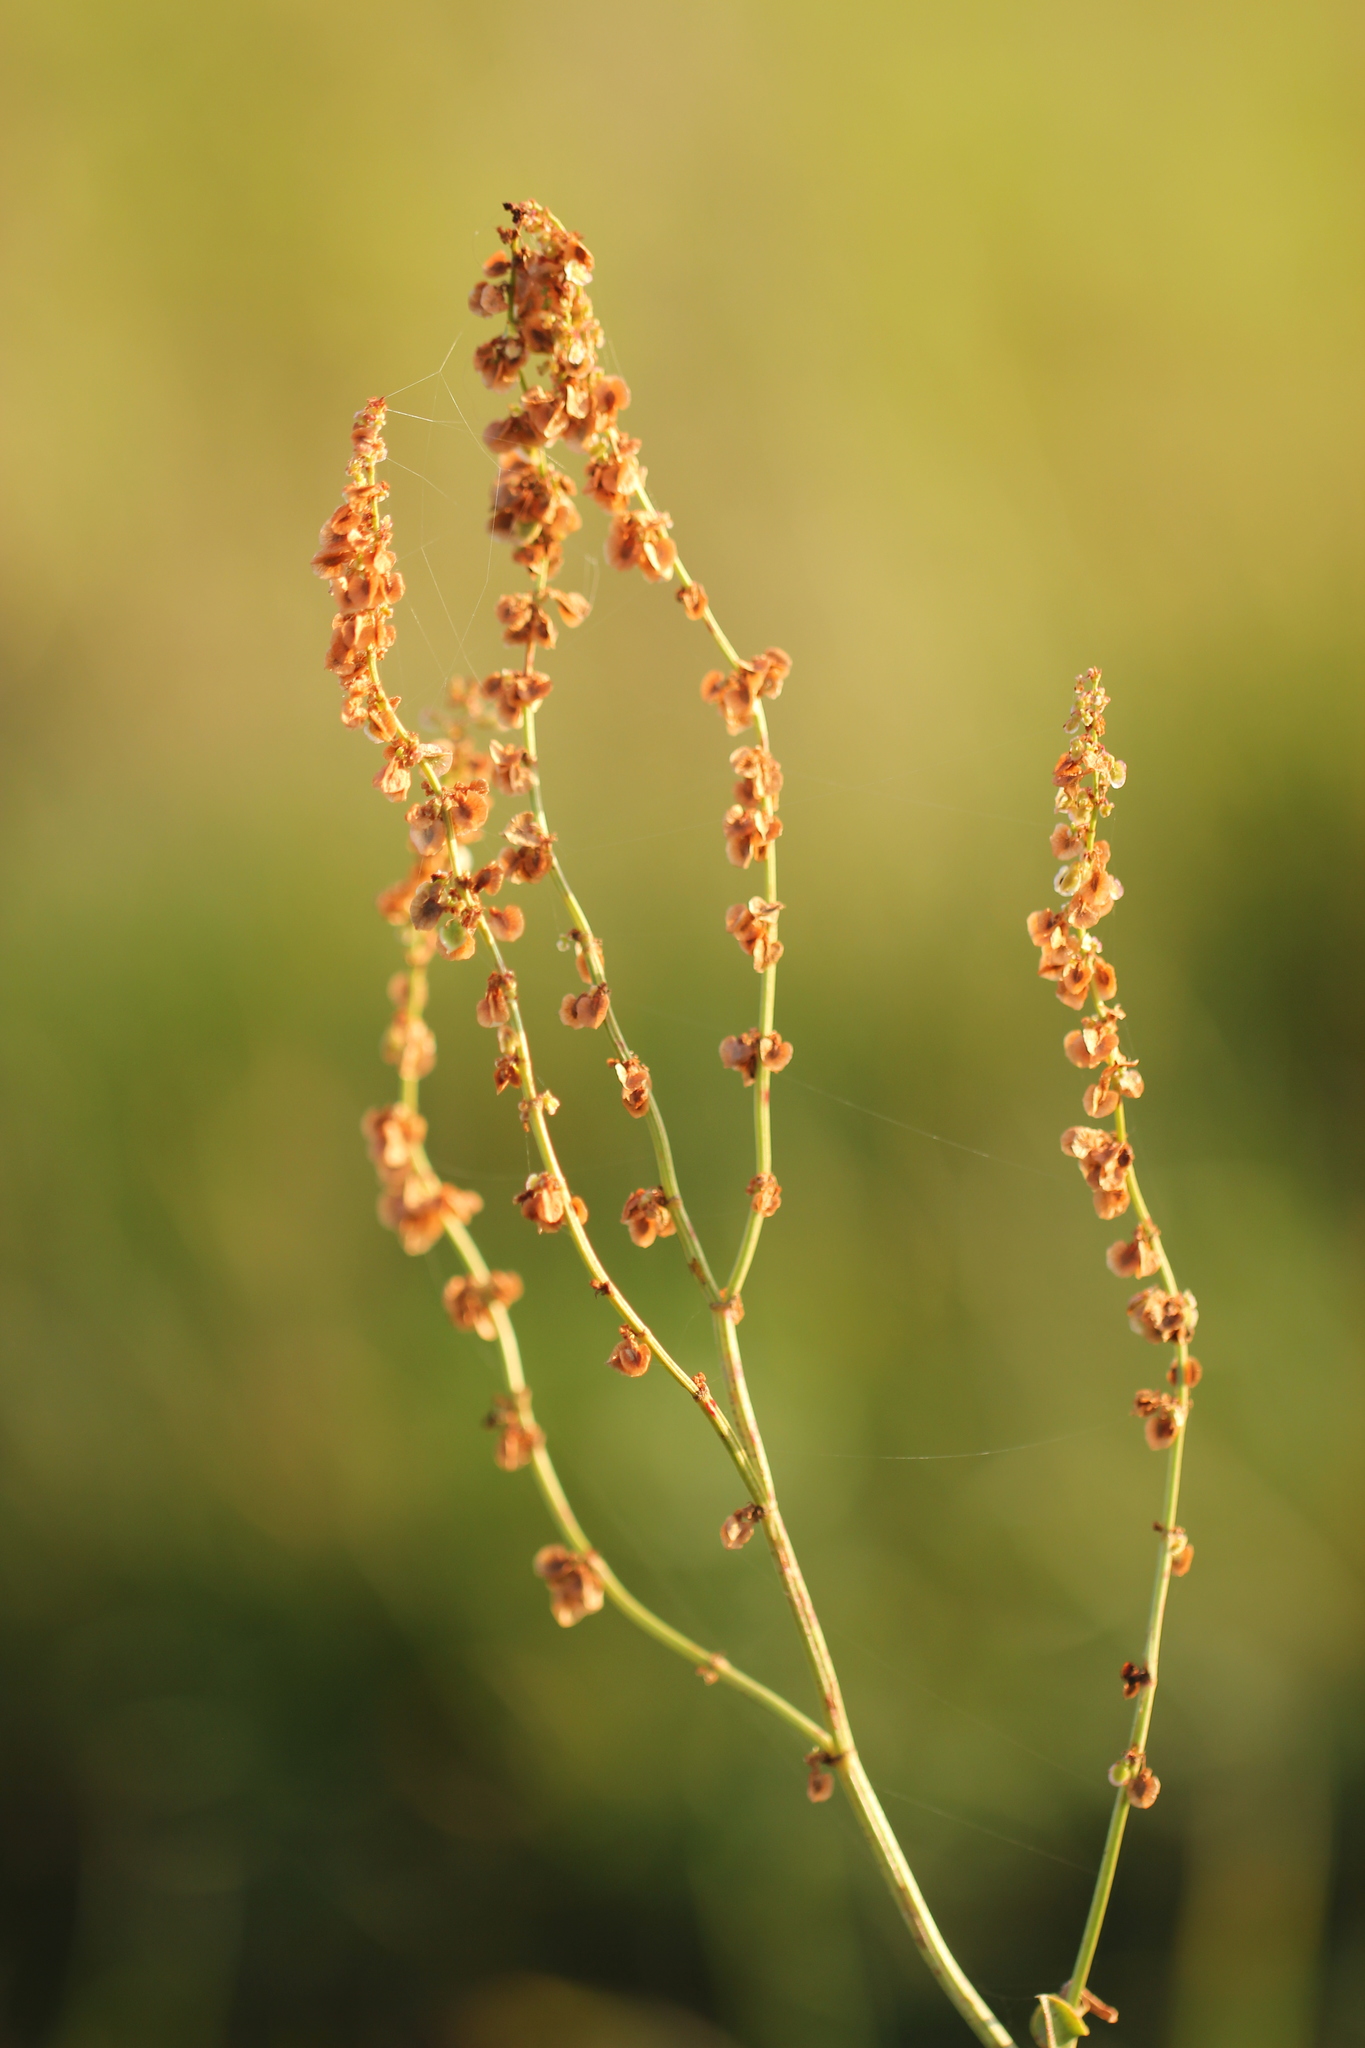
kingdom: Plantae
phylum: Tracheophyta
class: Magnoliopsida
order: Caryophyllales
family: Polygonaceae
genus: Rumex
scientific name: Rumex acetosella
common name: Common sheep sorrel
